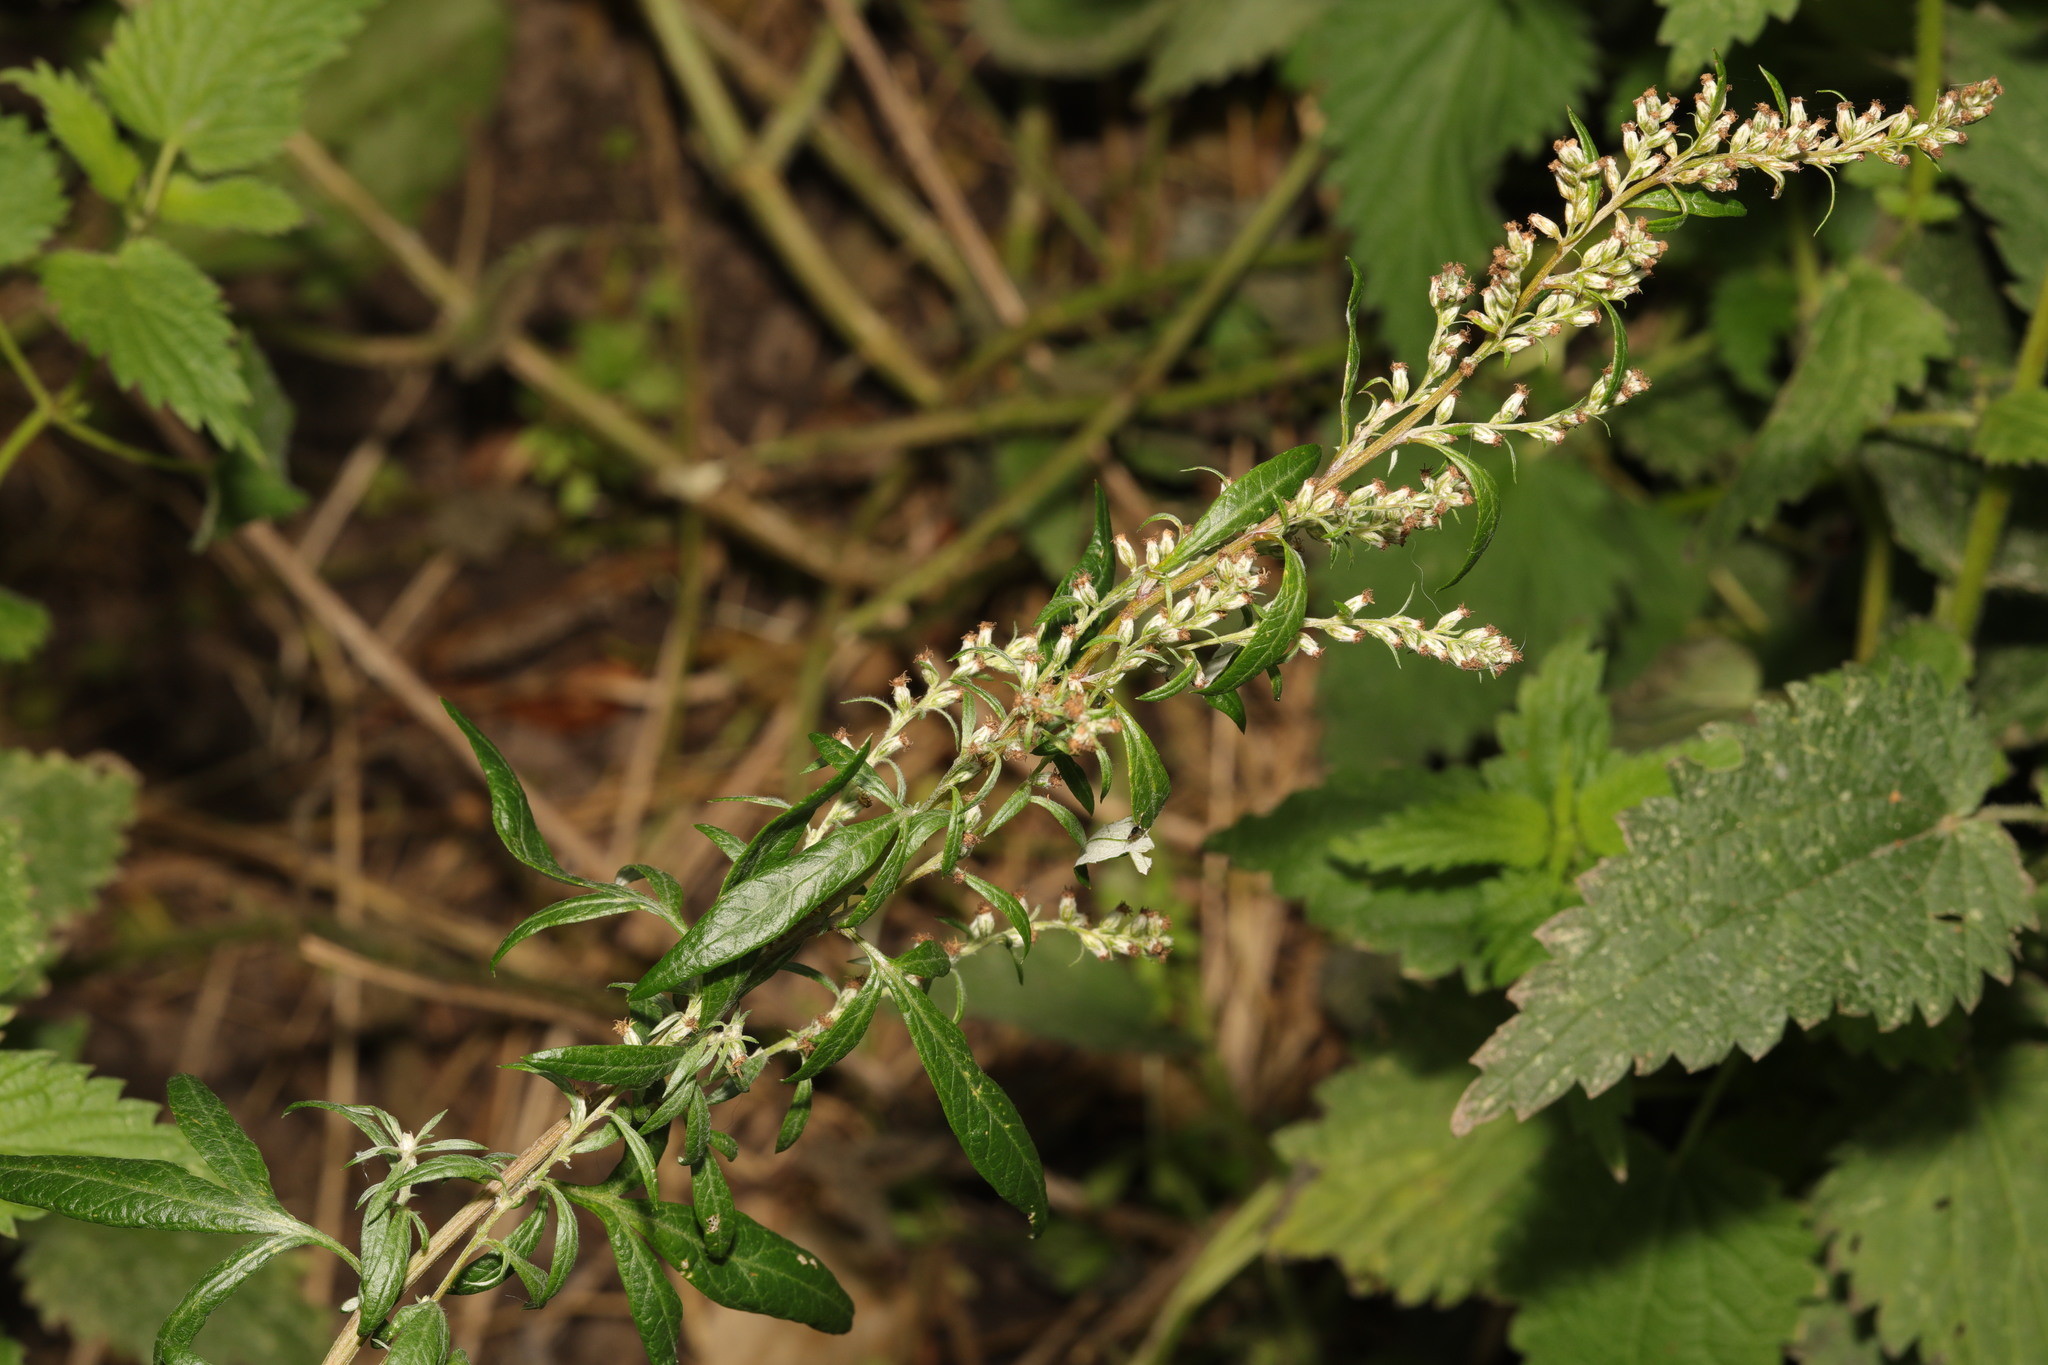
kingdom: Plantae
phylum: Tracheophyta
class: Magnoliopsida
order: Asterales
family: Asteraceae
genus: Artemisia
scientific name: Artemisia vulgaris
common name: Mugwort
